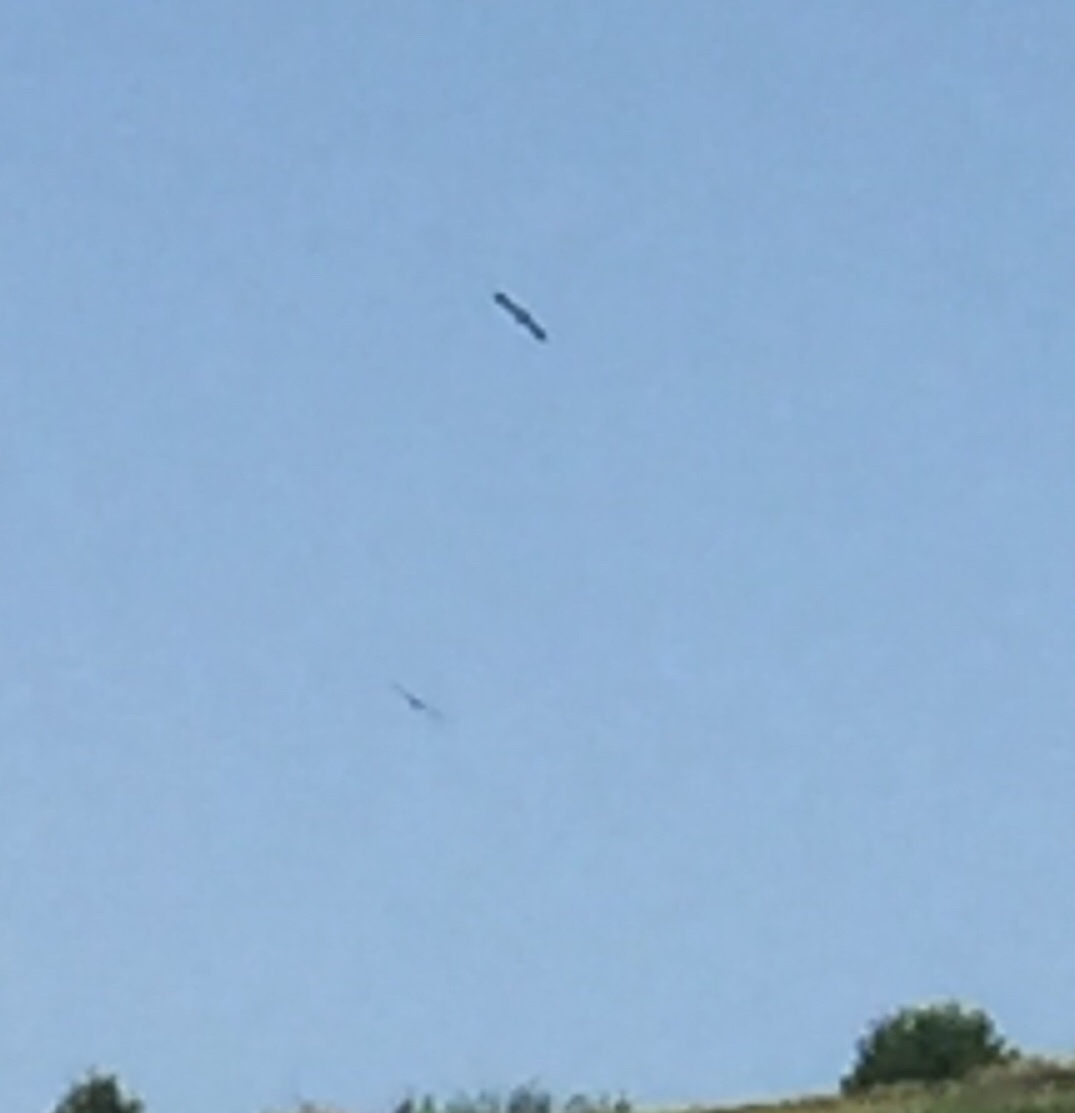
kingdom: Animalia
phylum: Chordata
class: Aves
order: Accipitriformes
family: Accipitridae
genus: Neophron
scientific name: Neophron percnopterus
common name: Egyptian vulture
